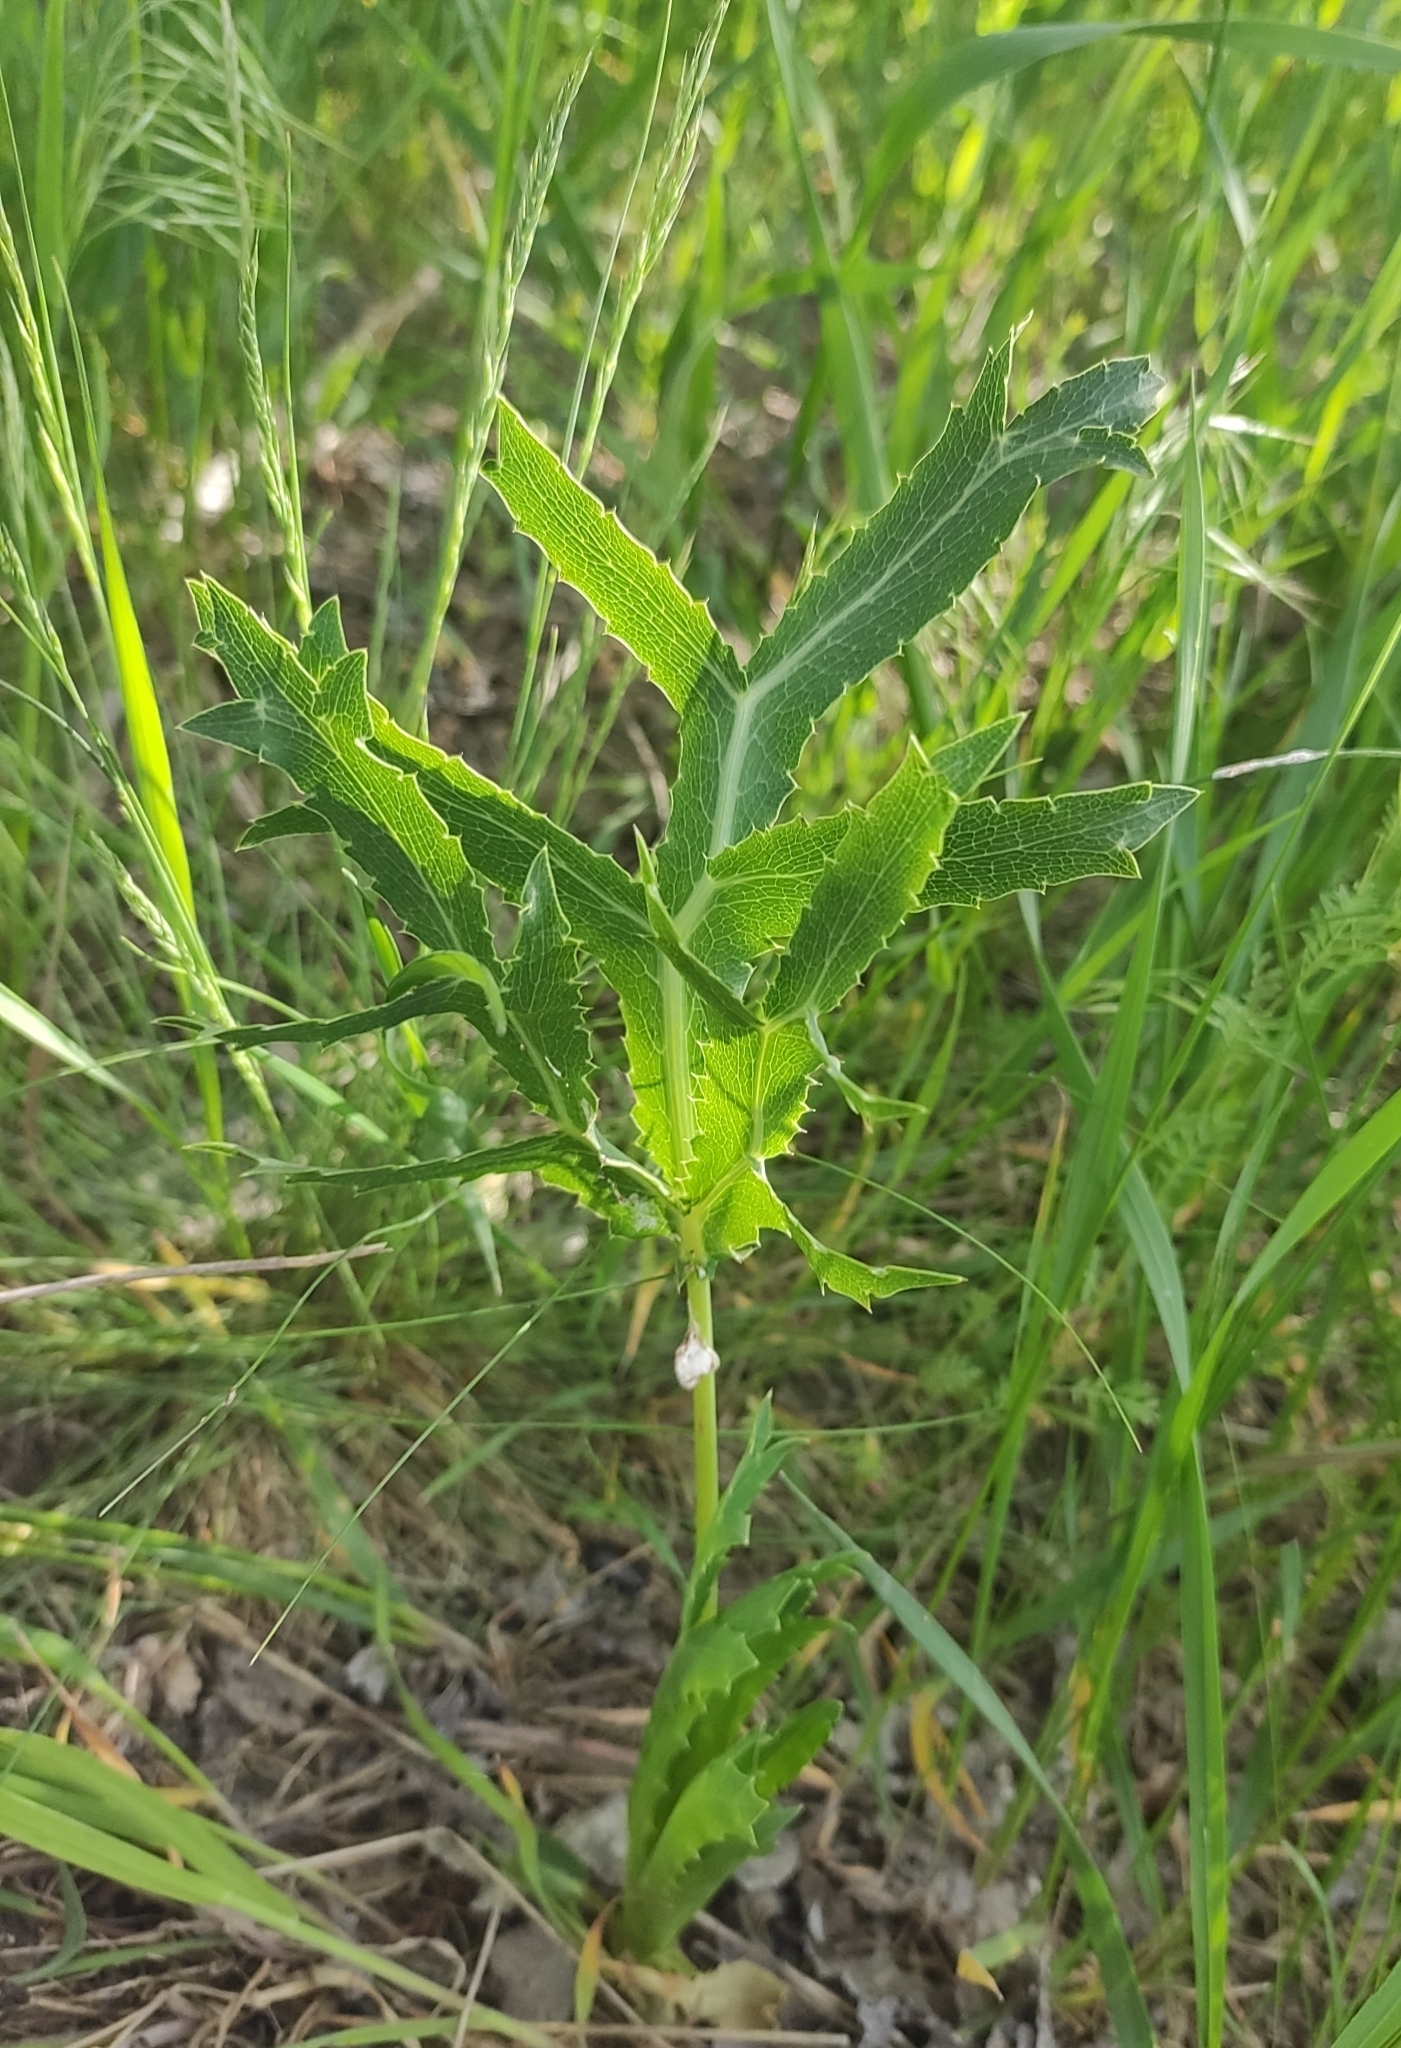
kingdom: Plantae
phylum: Tracheophyta
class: Magnoliopsida
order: Apiales
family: Apiaceae
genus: Eryngium
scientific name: Eryngium campestre
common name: Field eryngo
